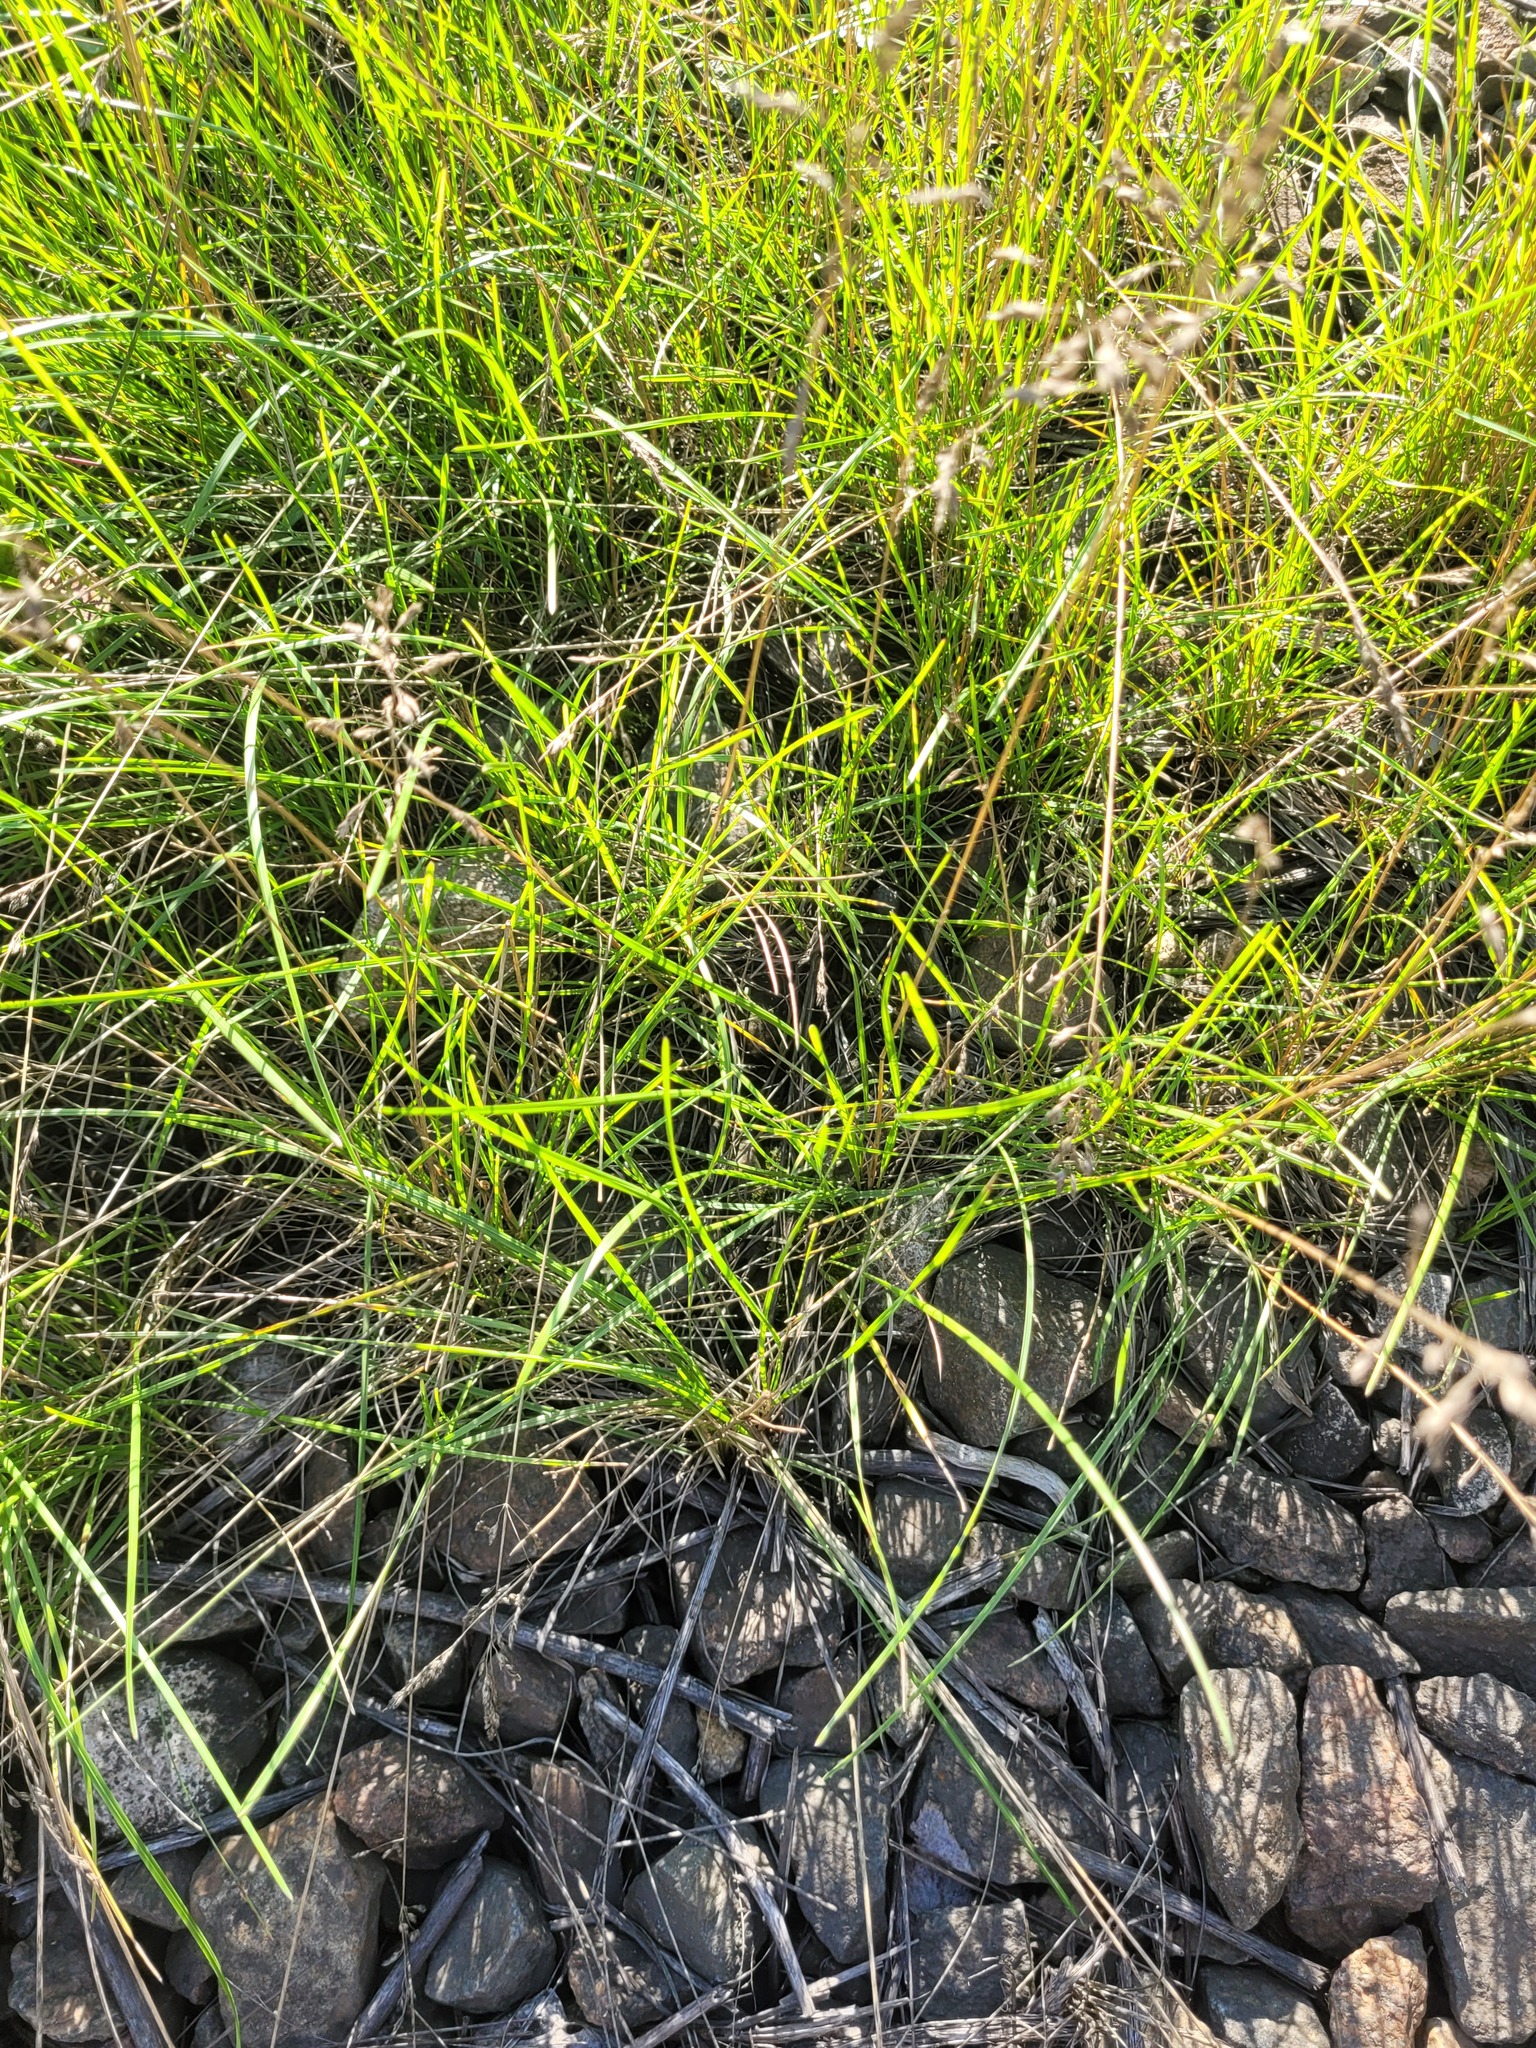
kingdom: Plantae
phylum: Tracheophyta
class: Liliopsida
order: Poales
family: Poaceae
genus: Poa
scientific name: Poa angustifolia
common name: Narrow-leaved meadow-grass
